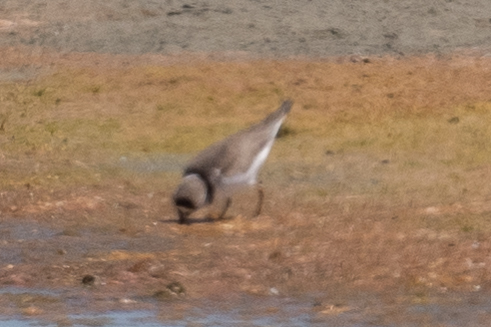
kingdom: Animalia
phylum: Chordata
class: Aves
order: Charadriiformes
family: Charadriidae
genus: Charadrius
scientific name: Charadrius semipalmatus
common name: Semipalmated plover
